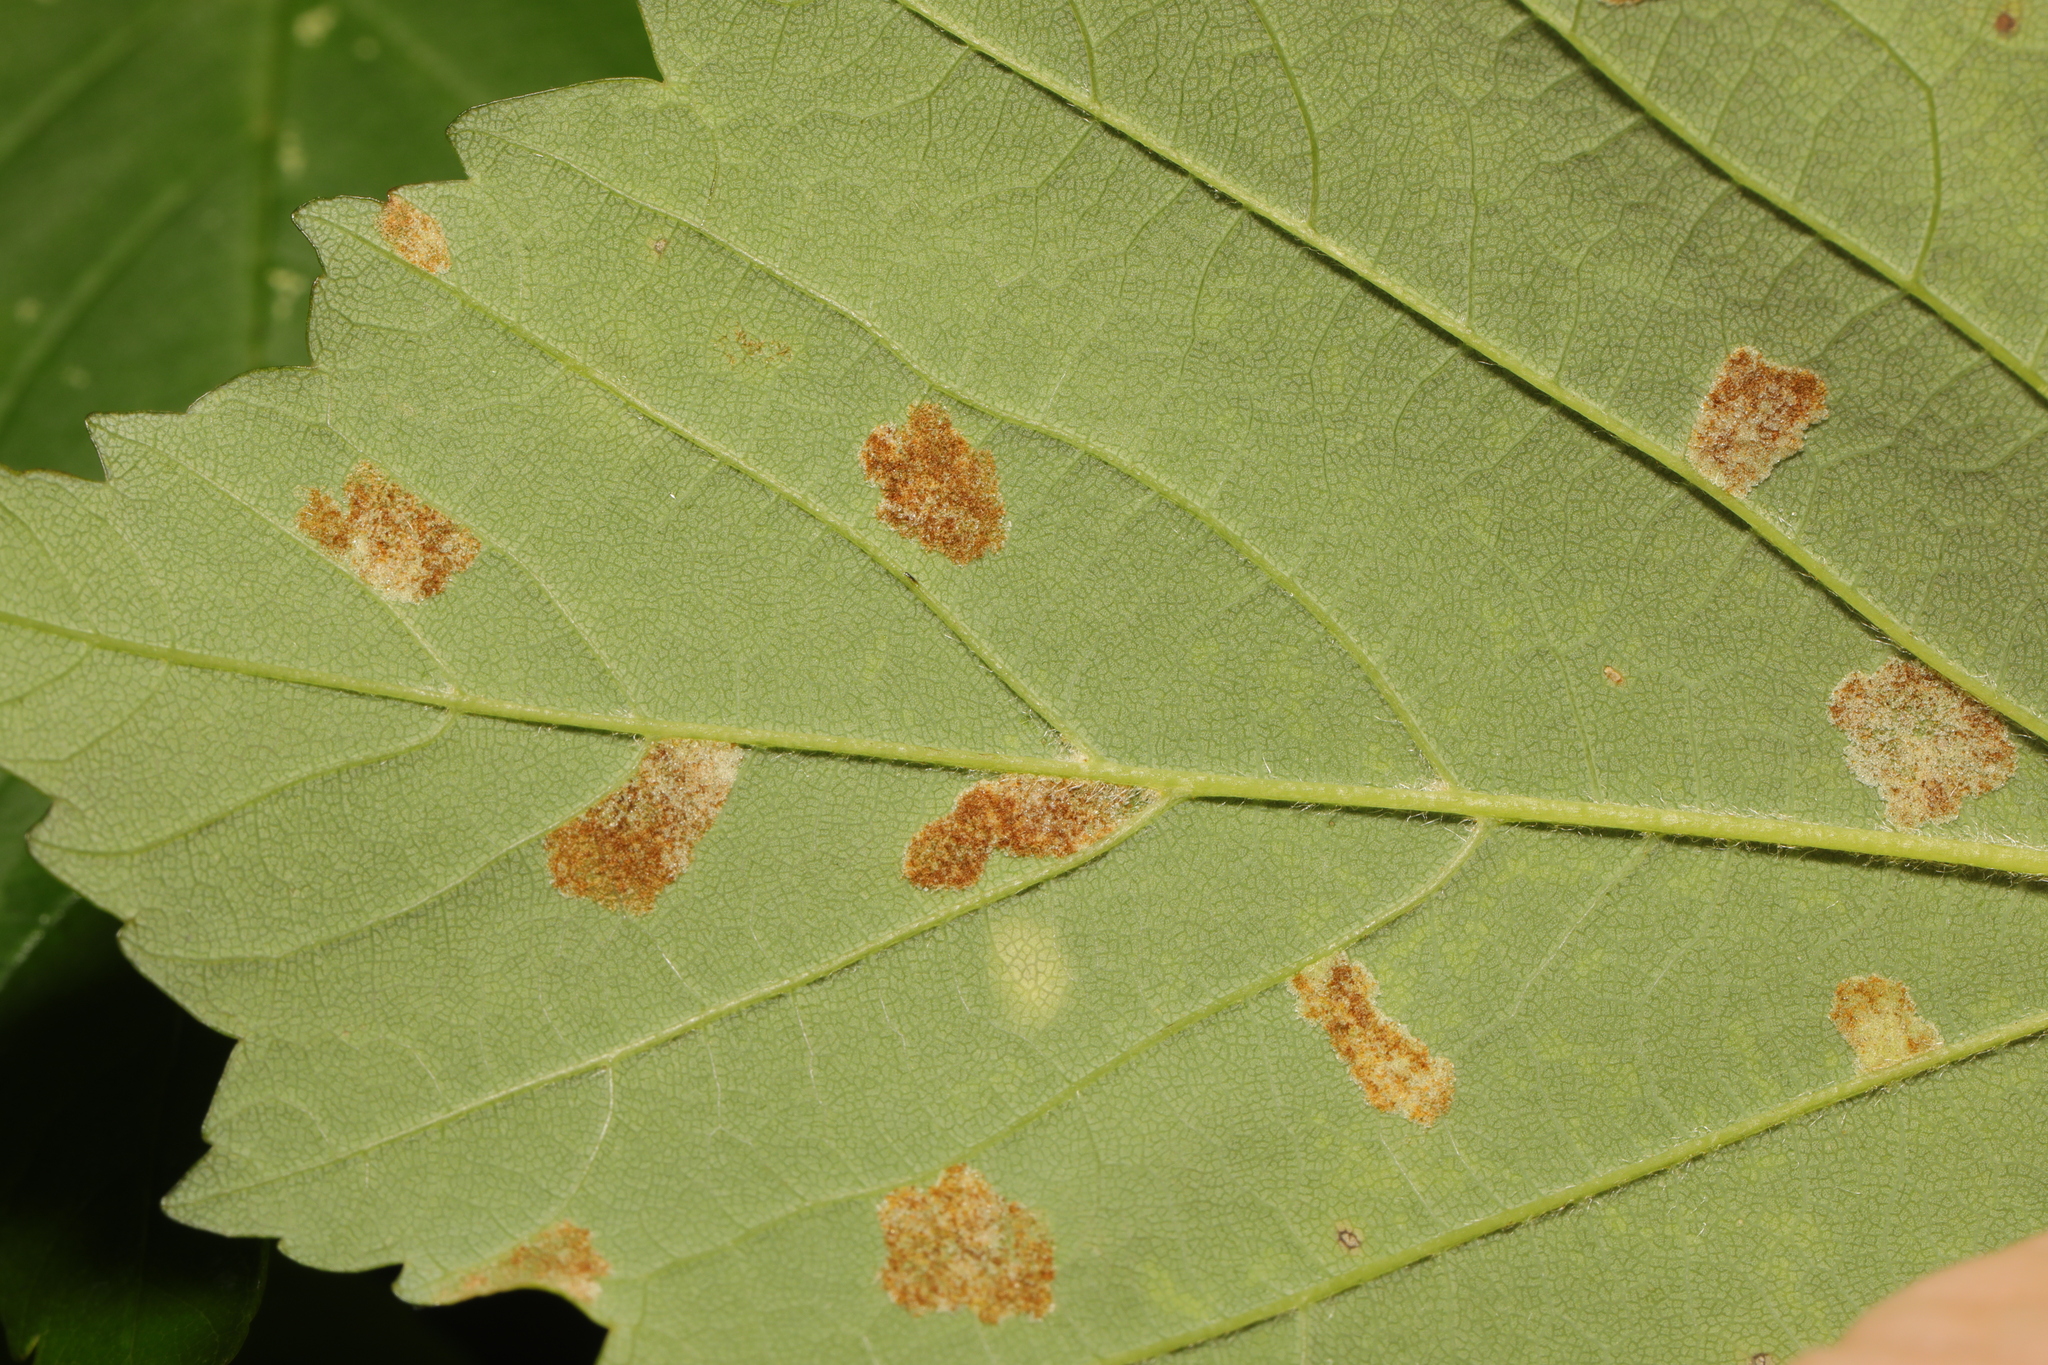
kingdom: Animalia
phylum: Arthropoda
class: Arachnida
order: Trombidiformes
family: Eriophyidae
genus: Aceria
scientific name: Aceria pseudoplatani
